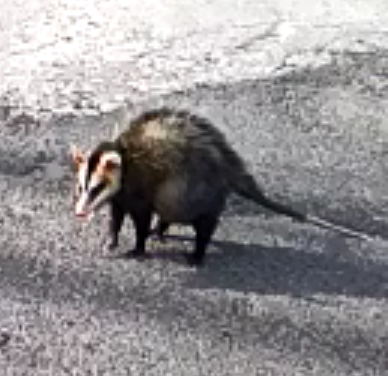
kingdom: Animalia
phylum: Chordata
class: Mammalia
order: Didelphimorphia
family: Didelphidae
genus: Didelphis
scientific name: Didelphis albiventris
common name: White-eared opossum
